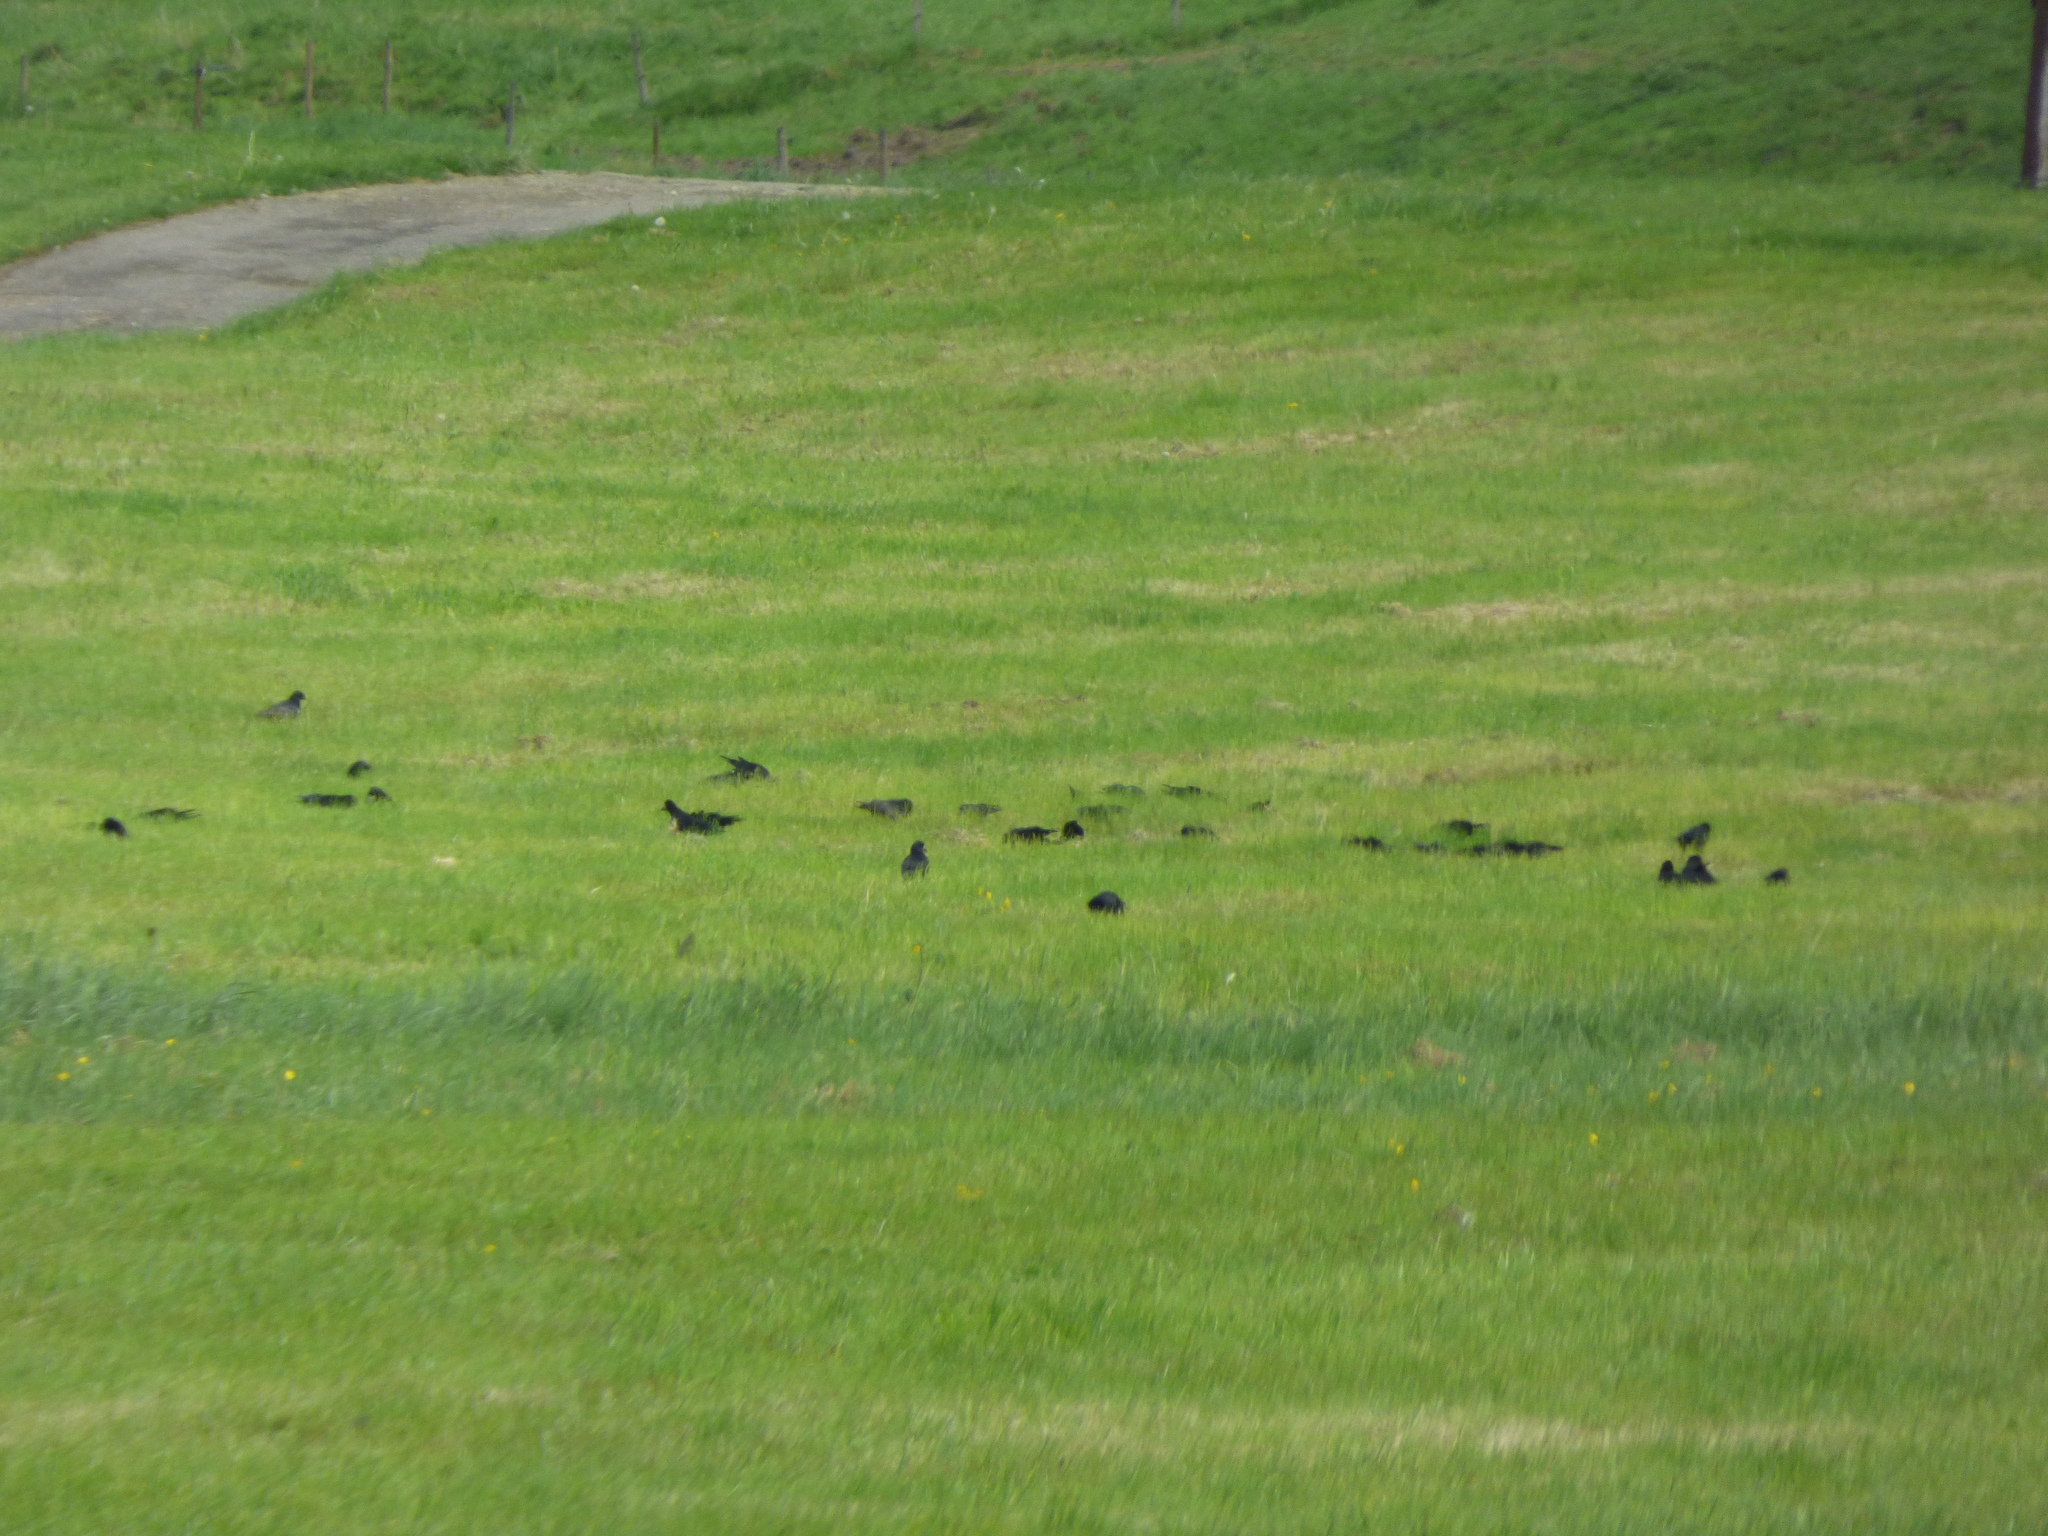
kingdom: Animalia
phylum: Chordata
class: Aves
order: Passeriformes
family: Corvidae
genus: Corvus
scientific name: Corvus frugilegus
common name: Rook
